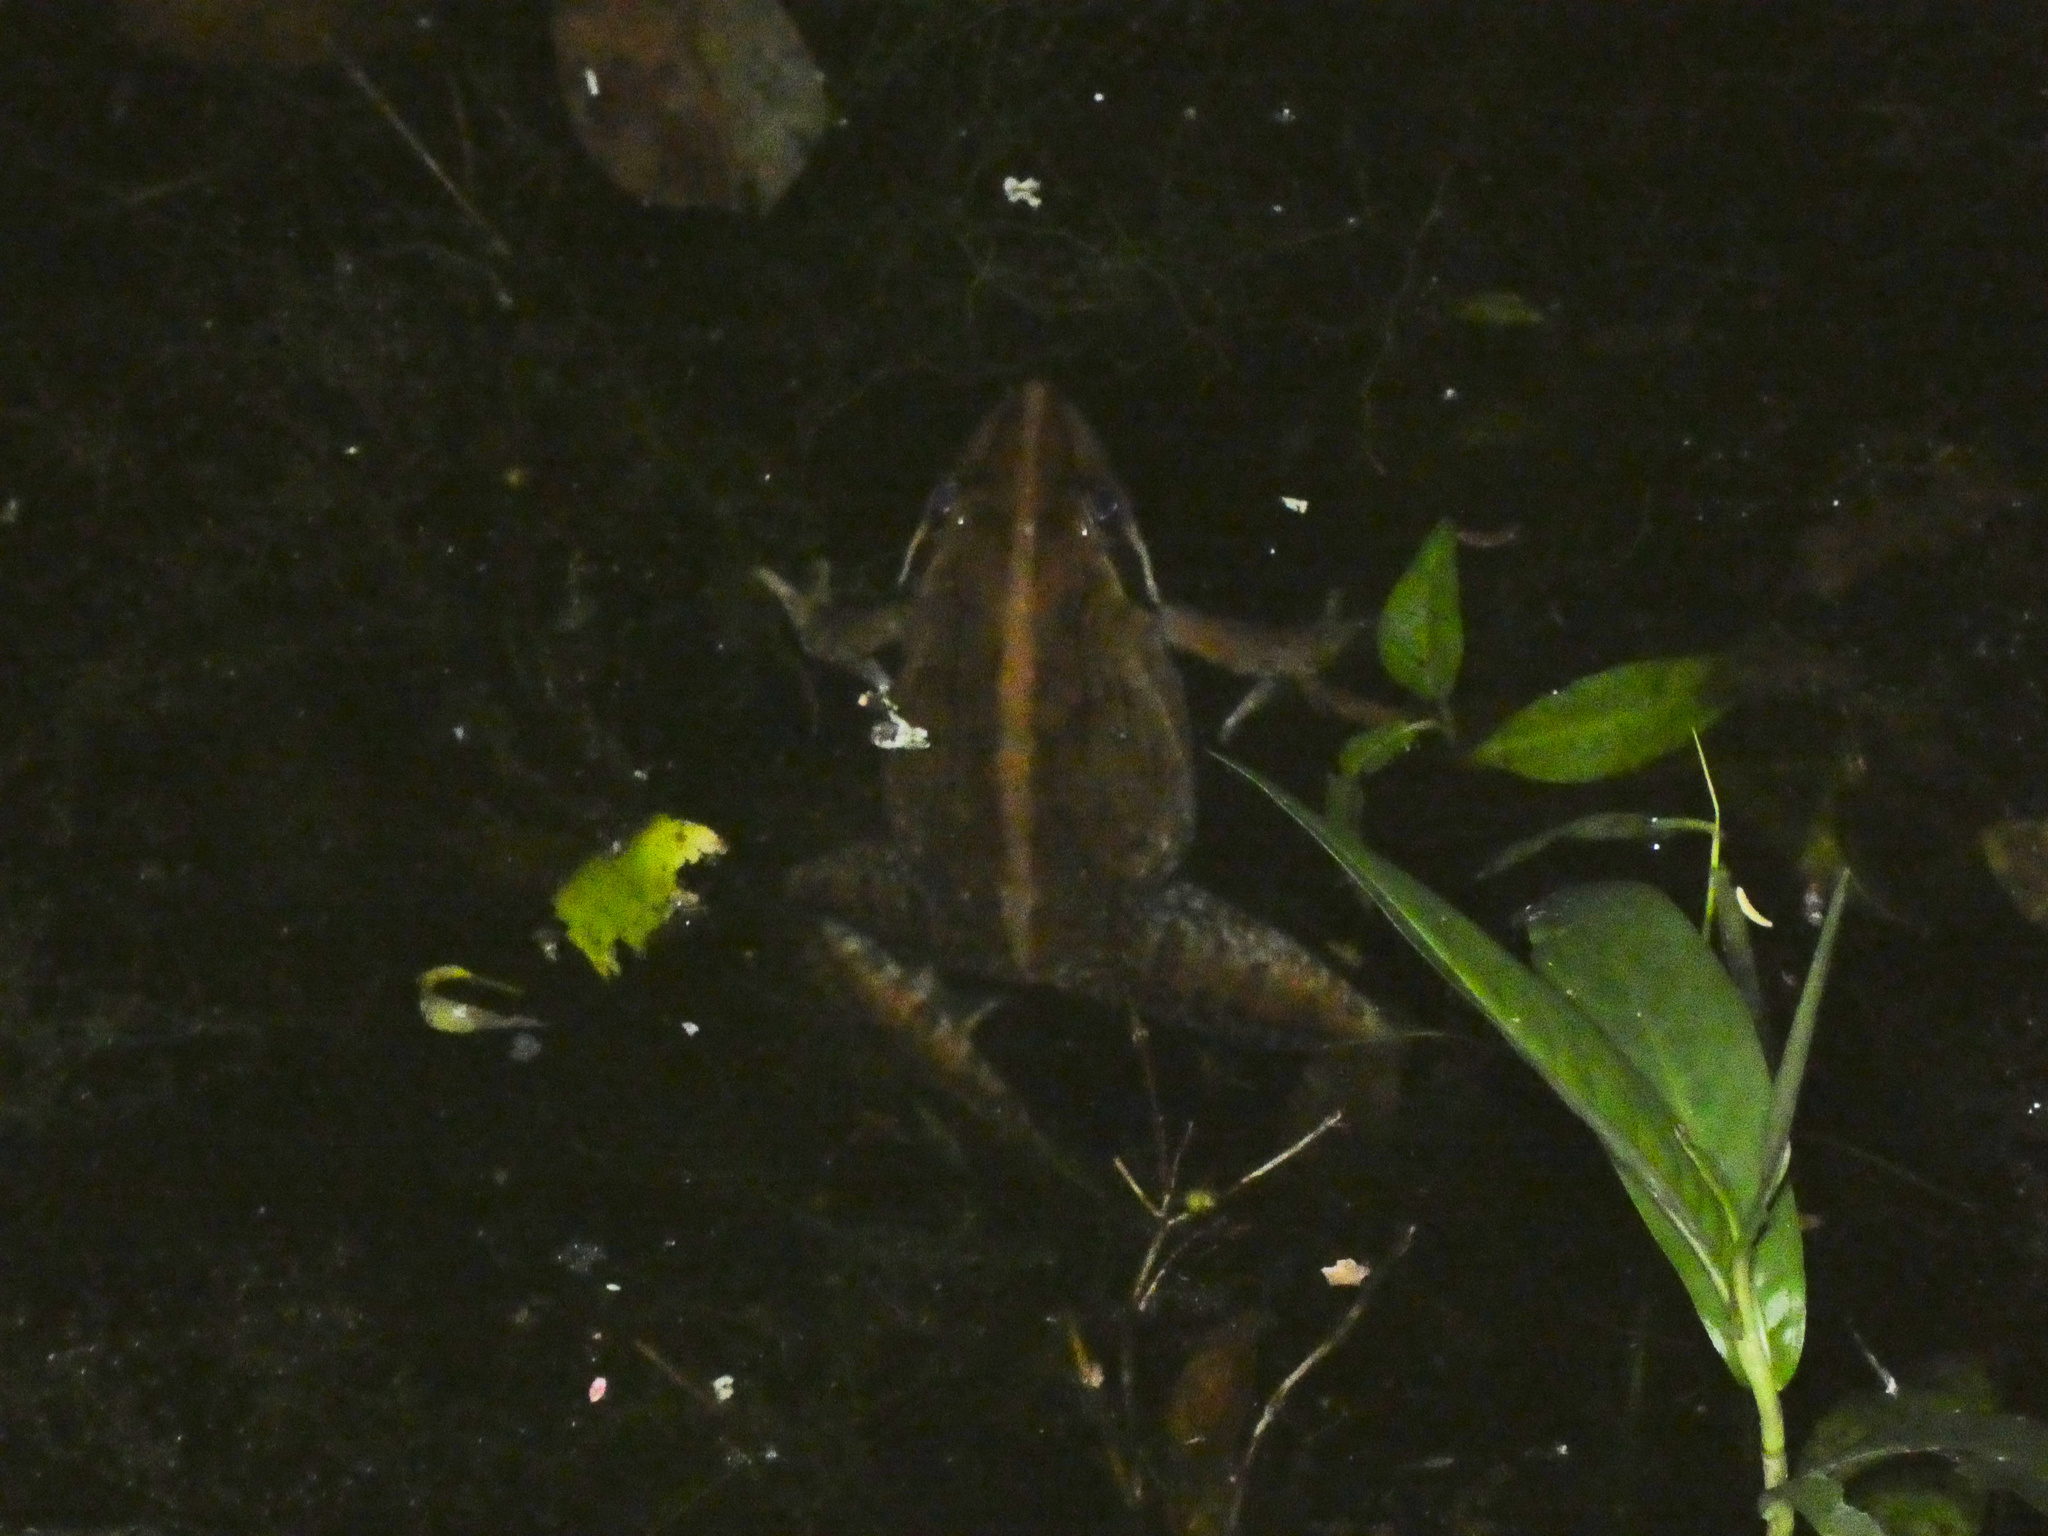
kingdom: Animalia
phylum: Chordata
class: Amphibia
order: Anura
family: Pyxicephalidae
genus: Amietia
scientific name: Amietia delalandii
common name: Delalande's river frog
